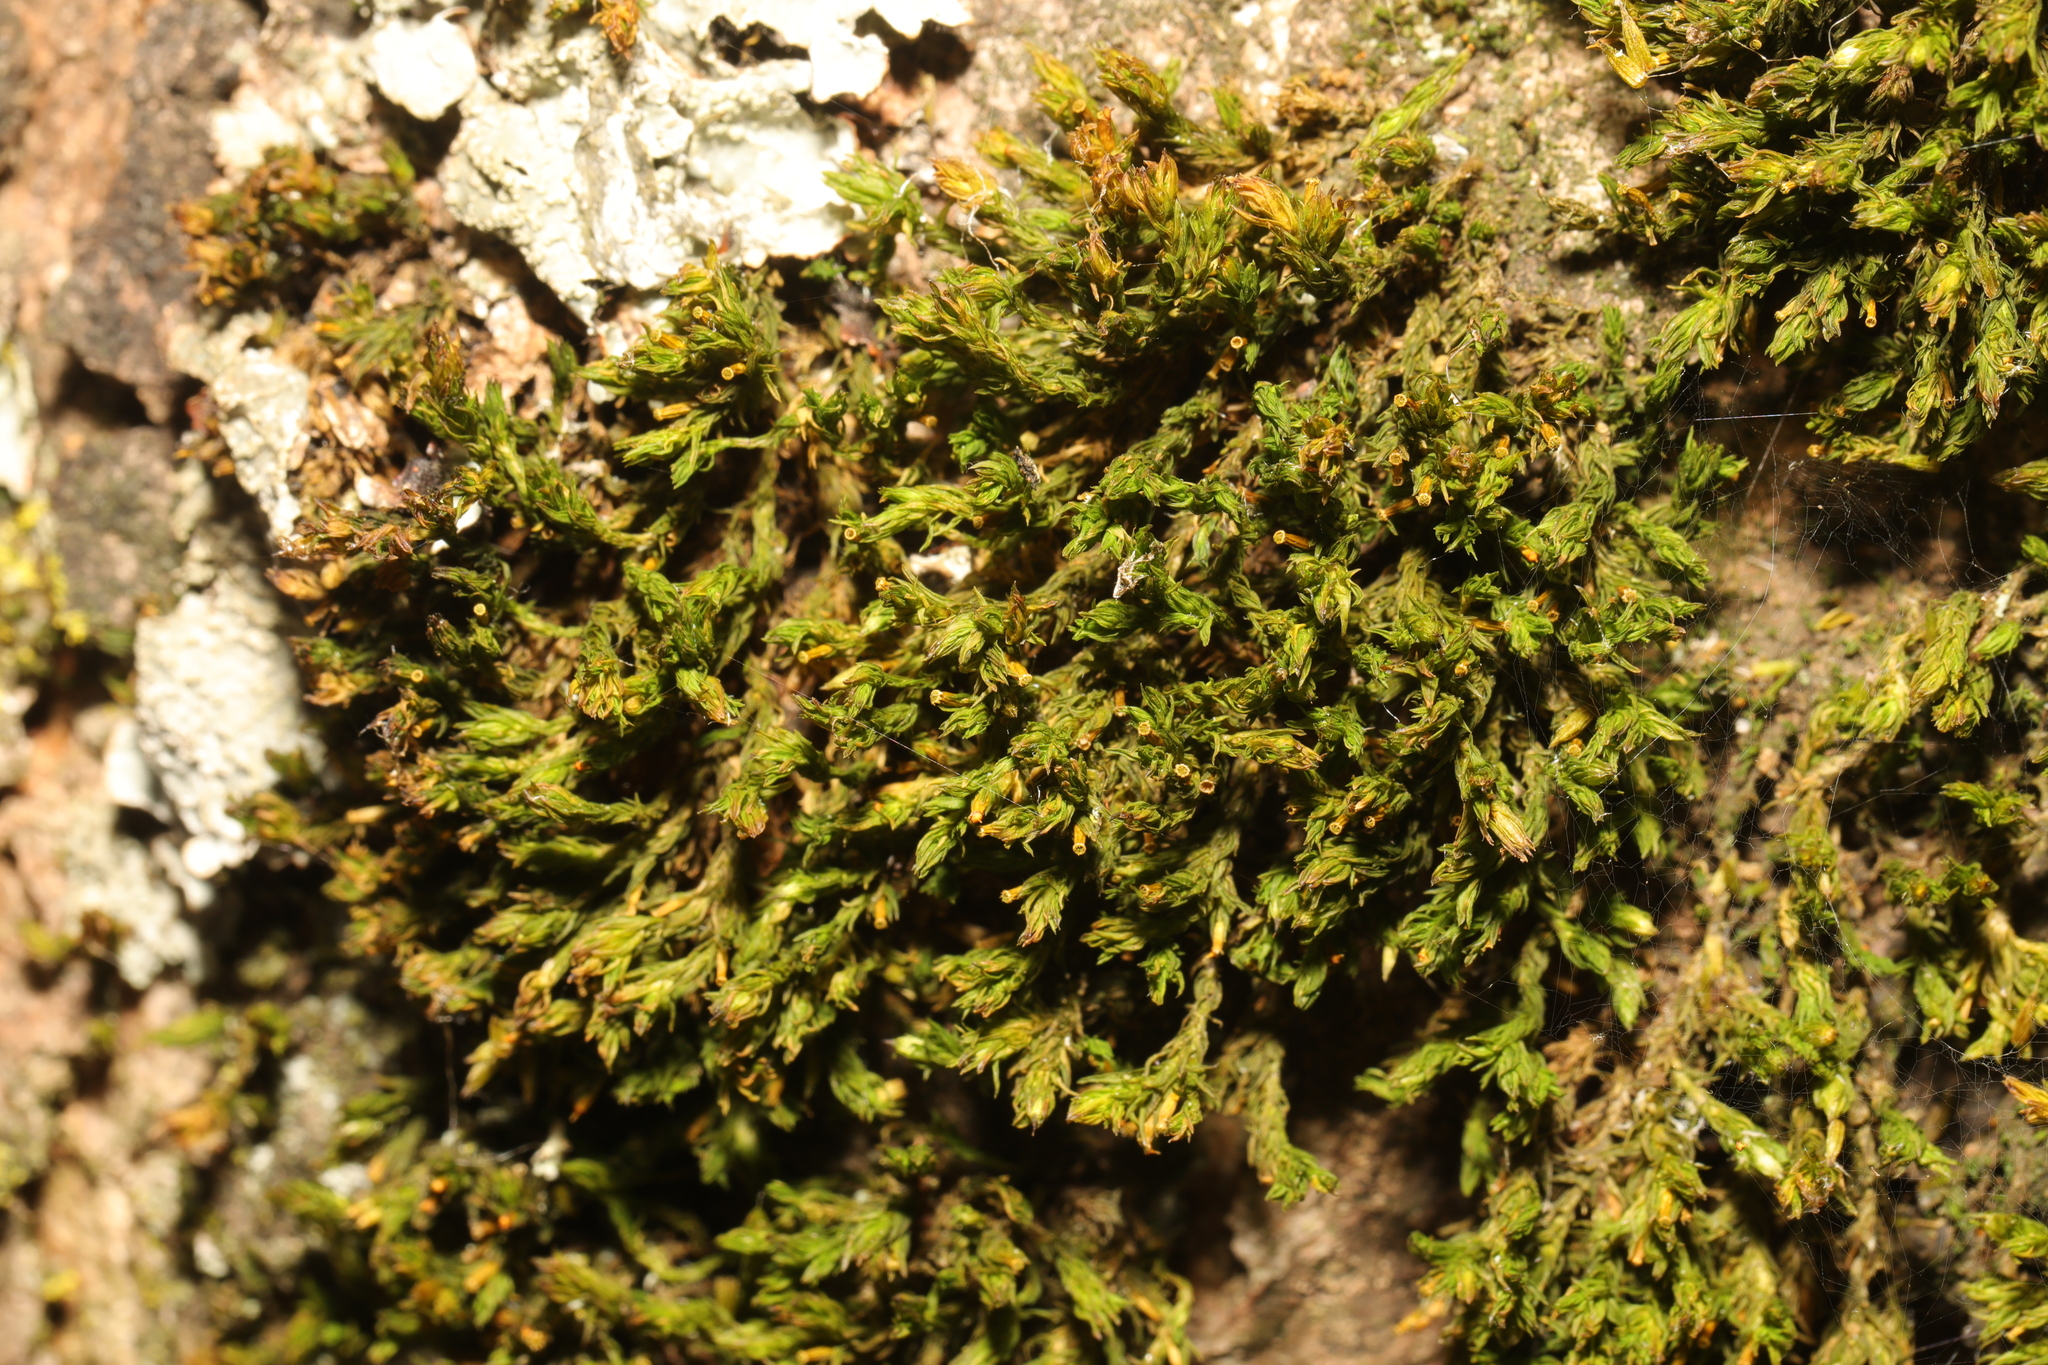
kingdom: Plantae
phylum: Bryophyta
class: Bryopsida
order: Orthotrichales
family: Orthotrichaceae
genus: Lewinskya
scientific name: Lewinskya affinis
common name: Wood bristle-moss
